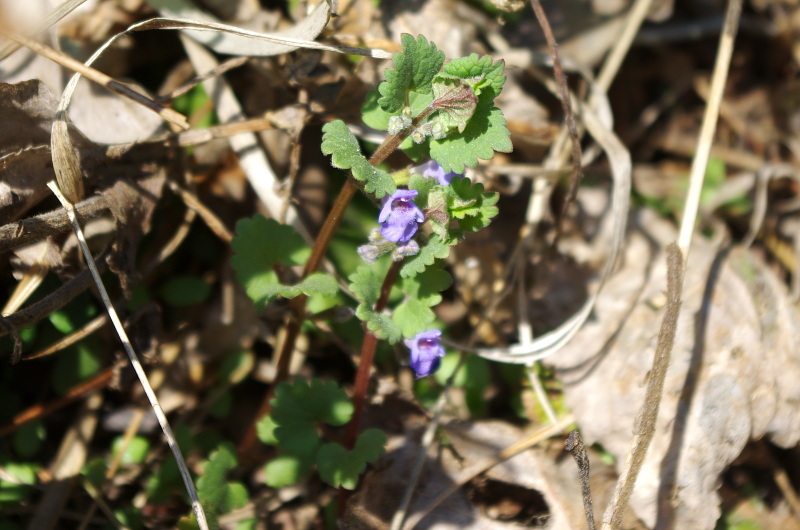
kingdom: Plantae
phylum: Tracheophyta
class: Magnoliopsida
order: Lamiales
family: Lamiaceae
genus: Glechoma
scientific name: Glechoma hederacea
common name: Ground ivy
